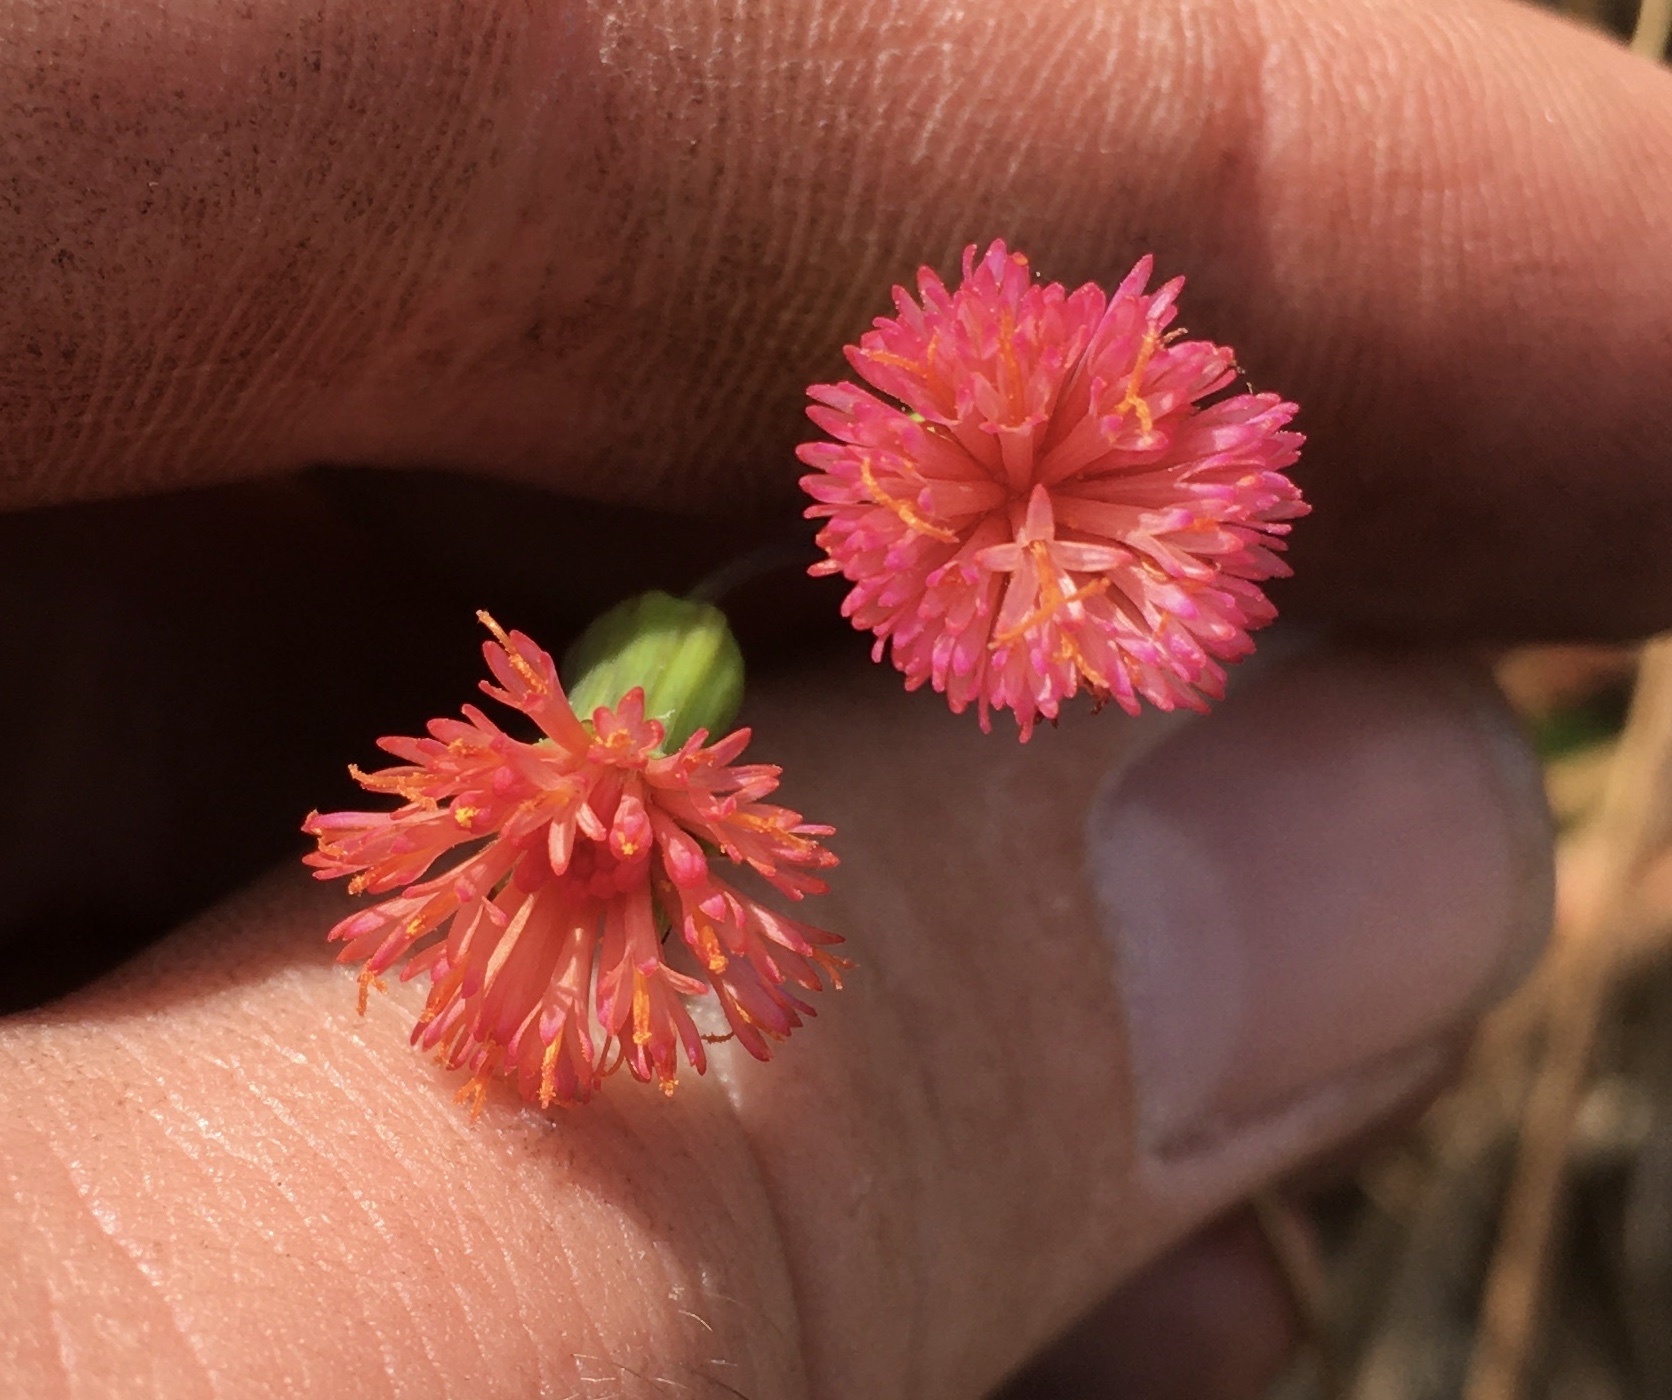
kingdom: Plantae
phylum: Tracheophyta
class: Magnoliopsida
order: Asterales
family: Asteraceae
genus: Emilia
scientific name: Emilia fosbergii
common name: Florida tasselflower
